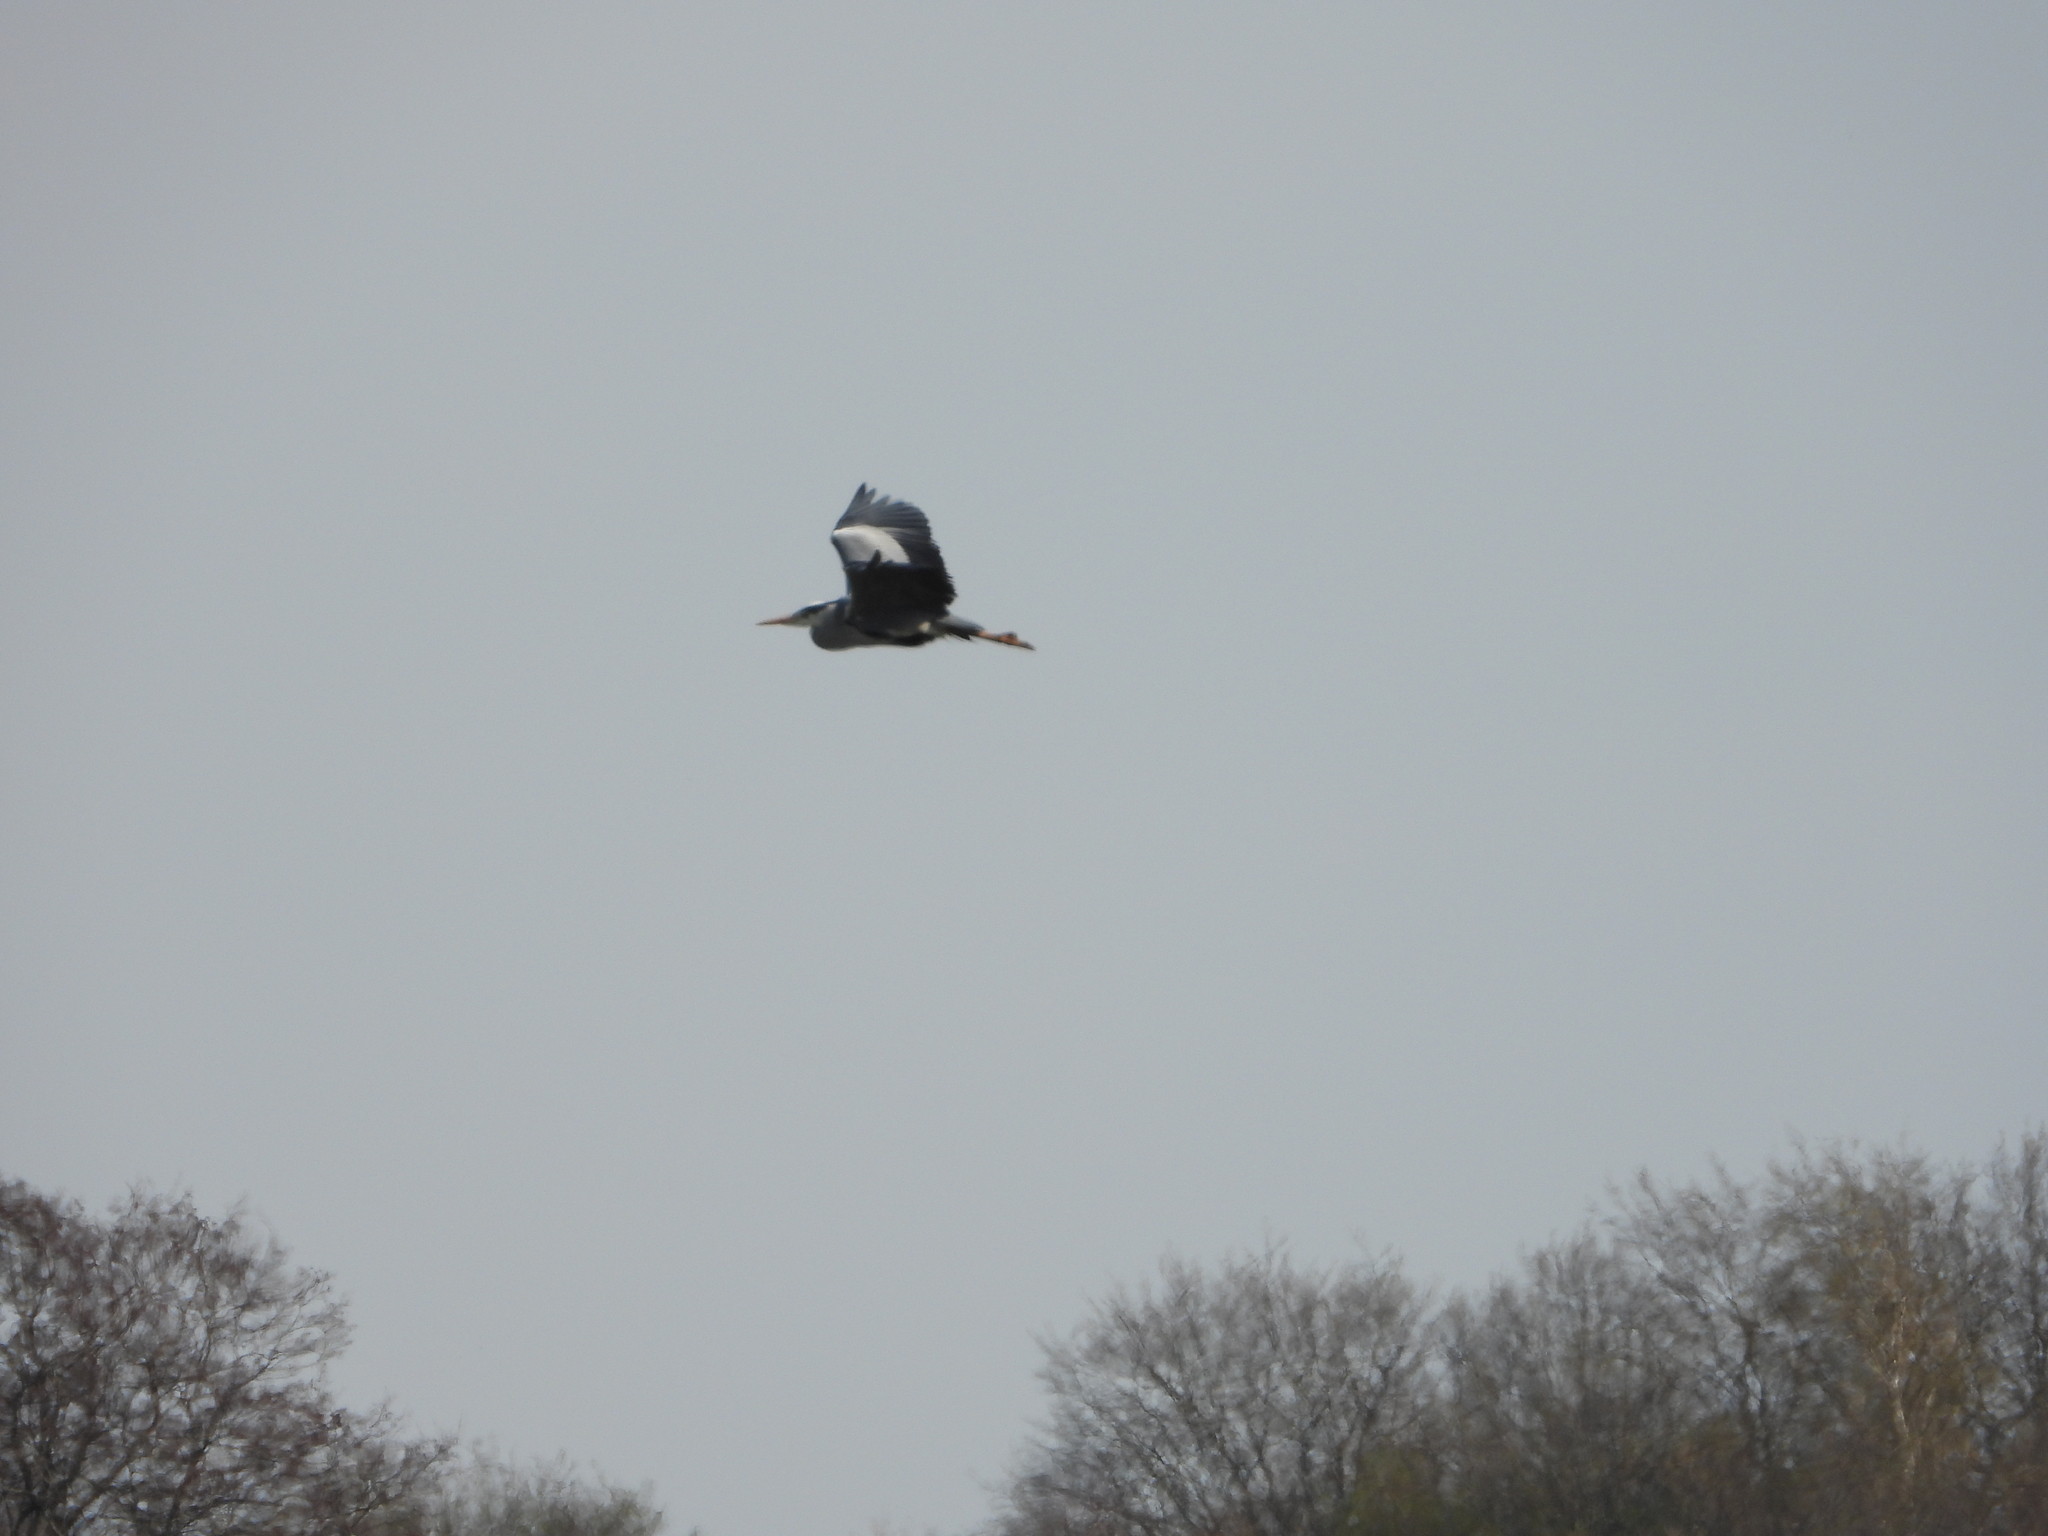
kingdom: Animalia
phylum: Chordata
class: Aves
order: Pelecaniformes
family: Ardeidae
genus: Ardea
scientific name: Ardea cinerea
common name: Grey heron
